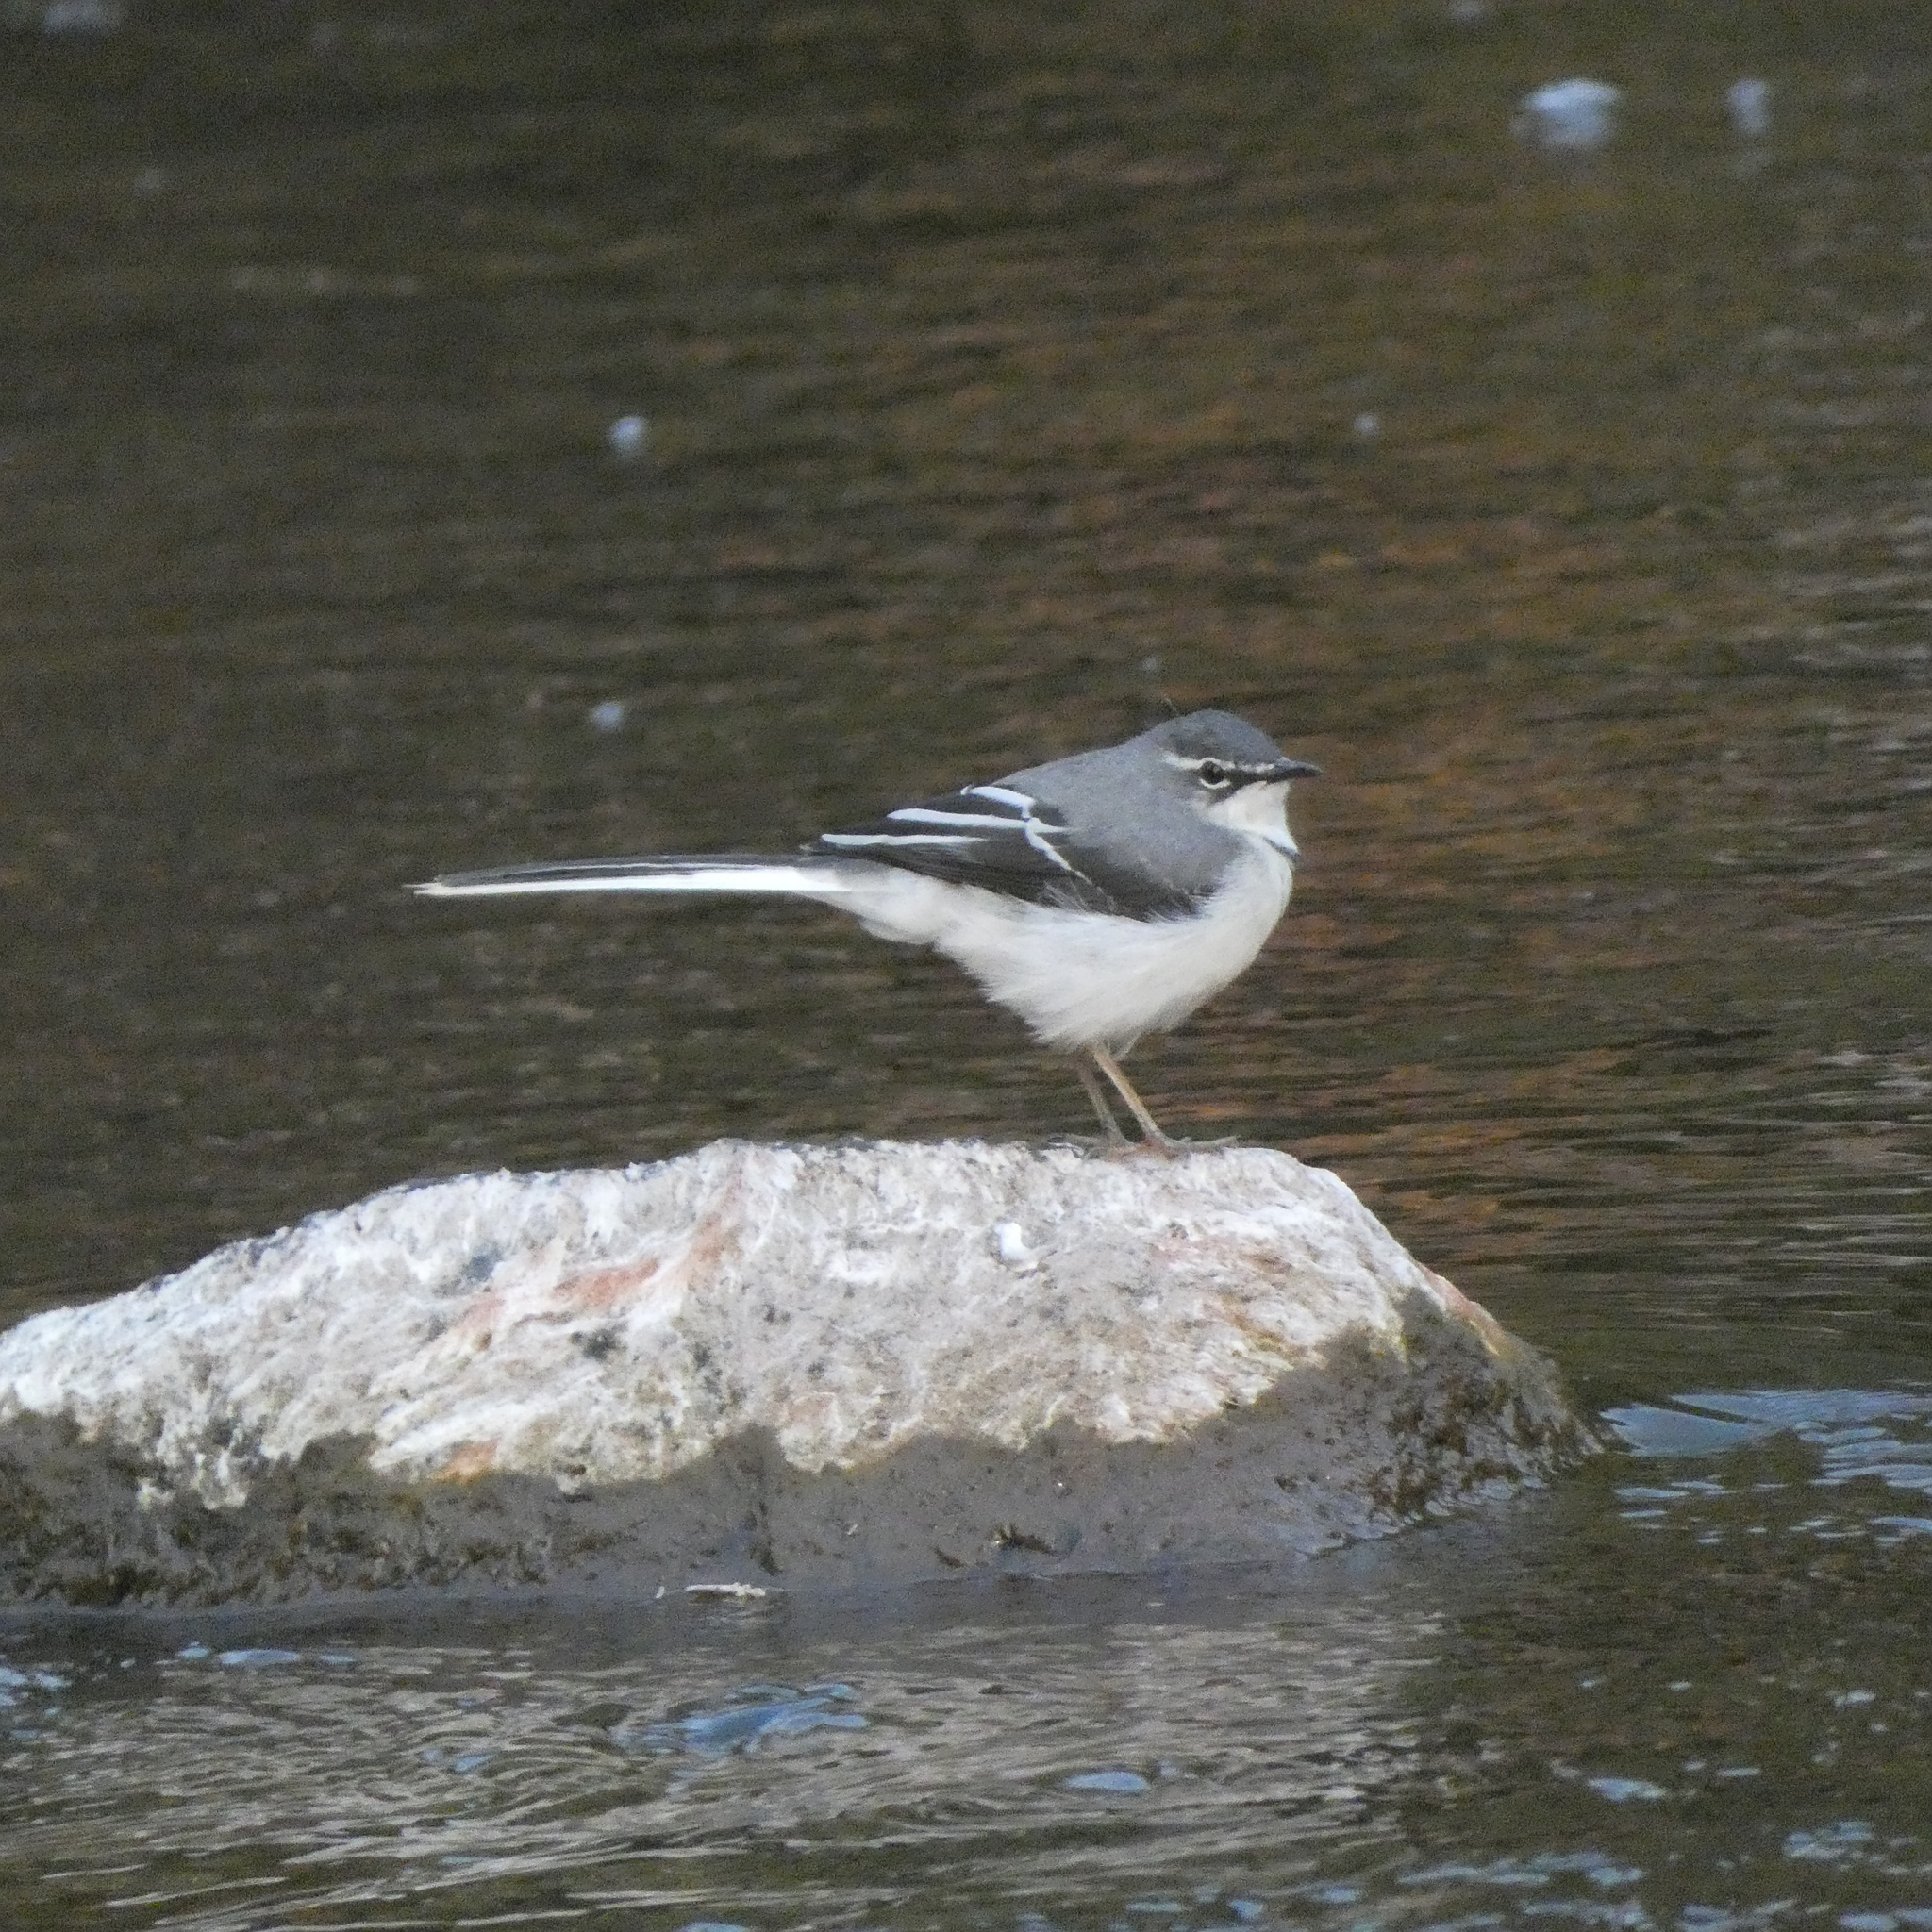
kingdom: Animalia
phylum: Chordata
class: Aves
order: Passeriformes
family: Motacillidae
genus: Motacilla
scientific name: Motacilla clara
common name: Mountain wagtail
